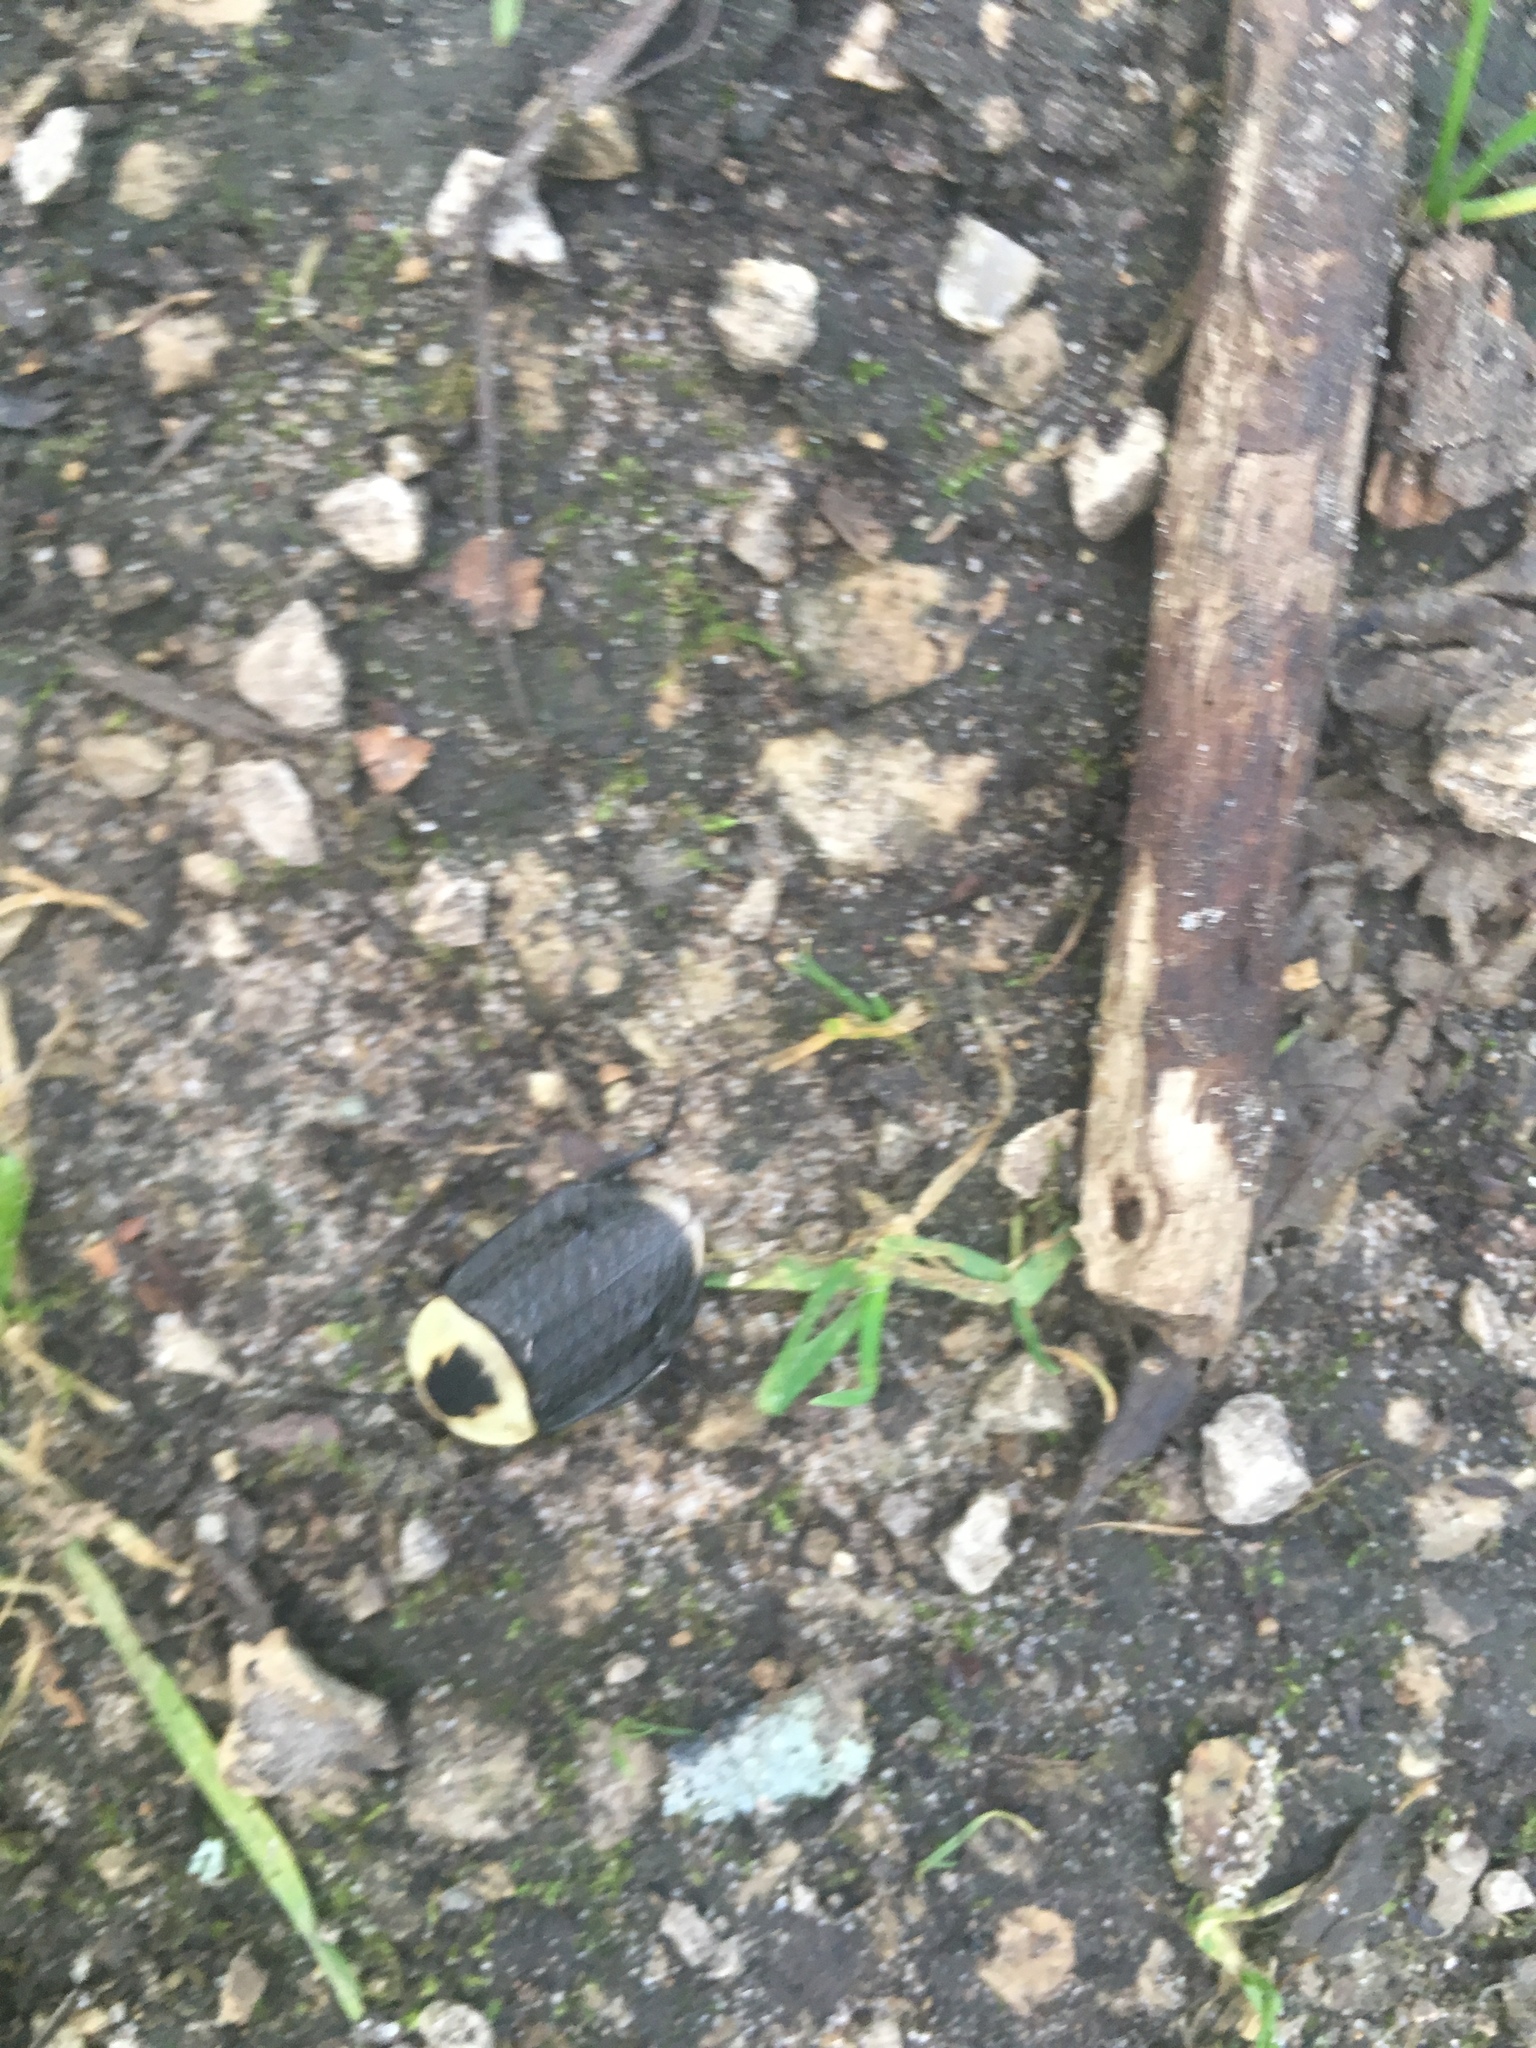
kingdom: Animalia
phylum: Arthropoda
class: Insecta
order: Coleoptera
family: Staphylinidae
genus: Necrophila
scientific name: Necrophila americana
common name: American carrion beetle
